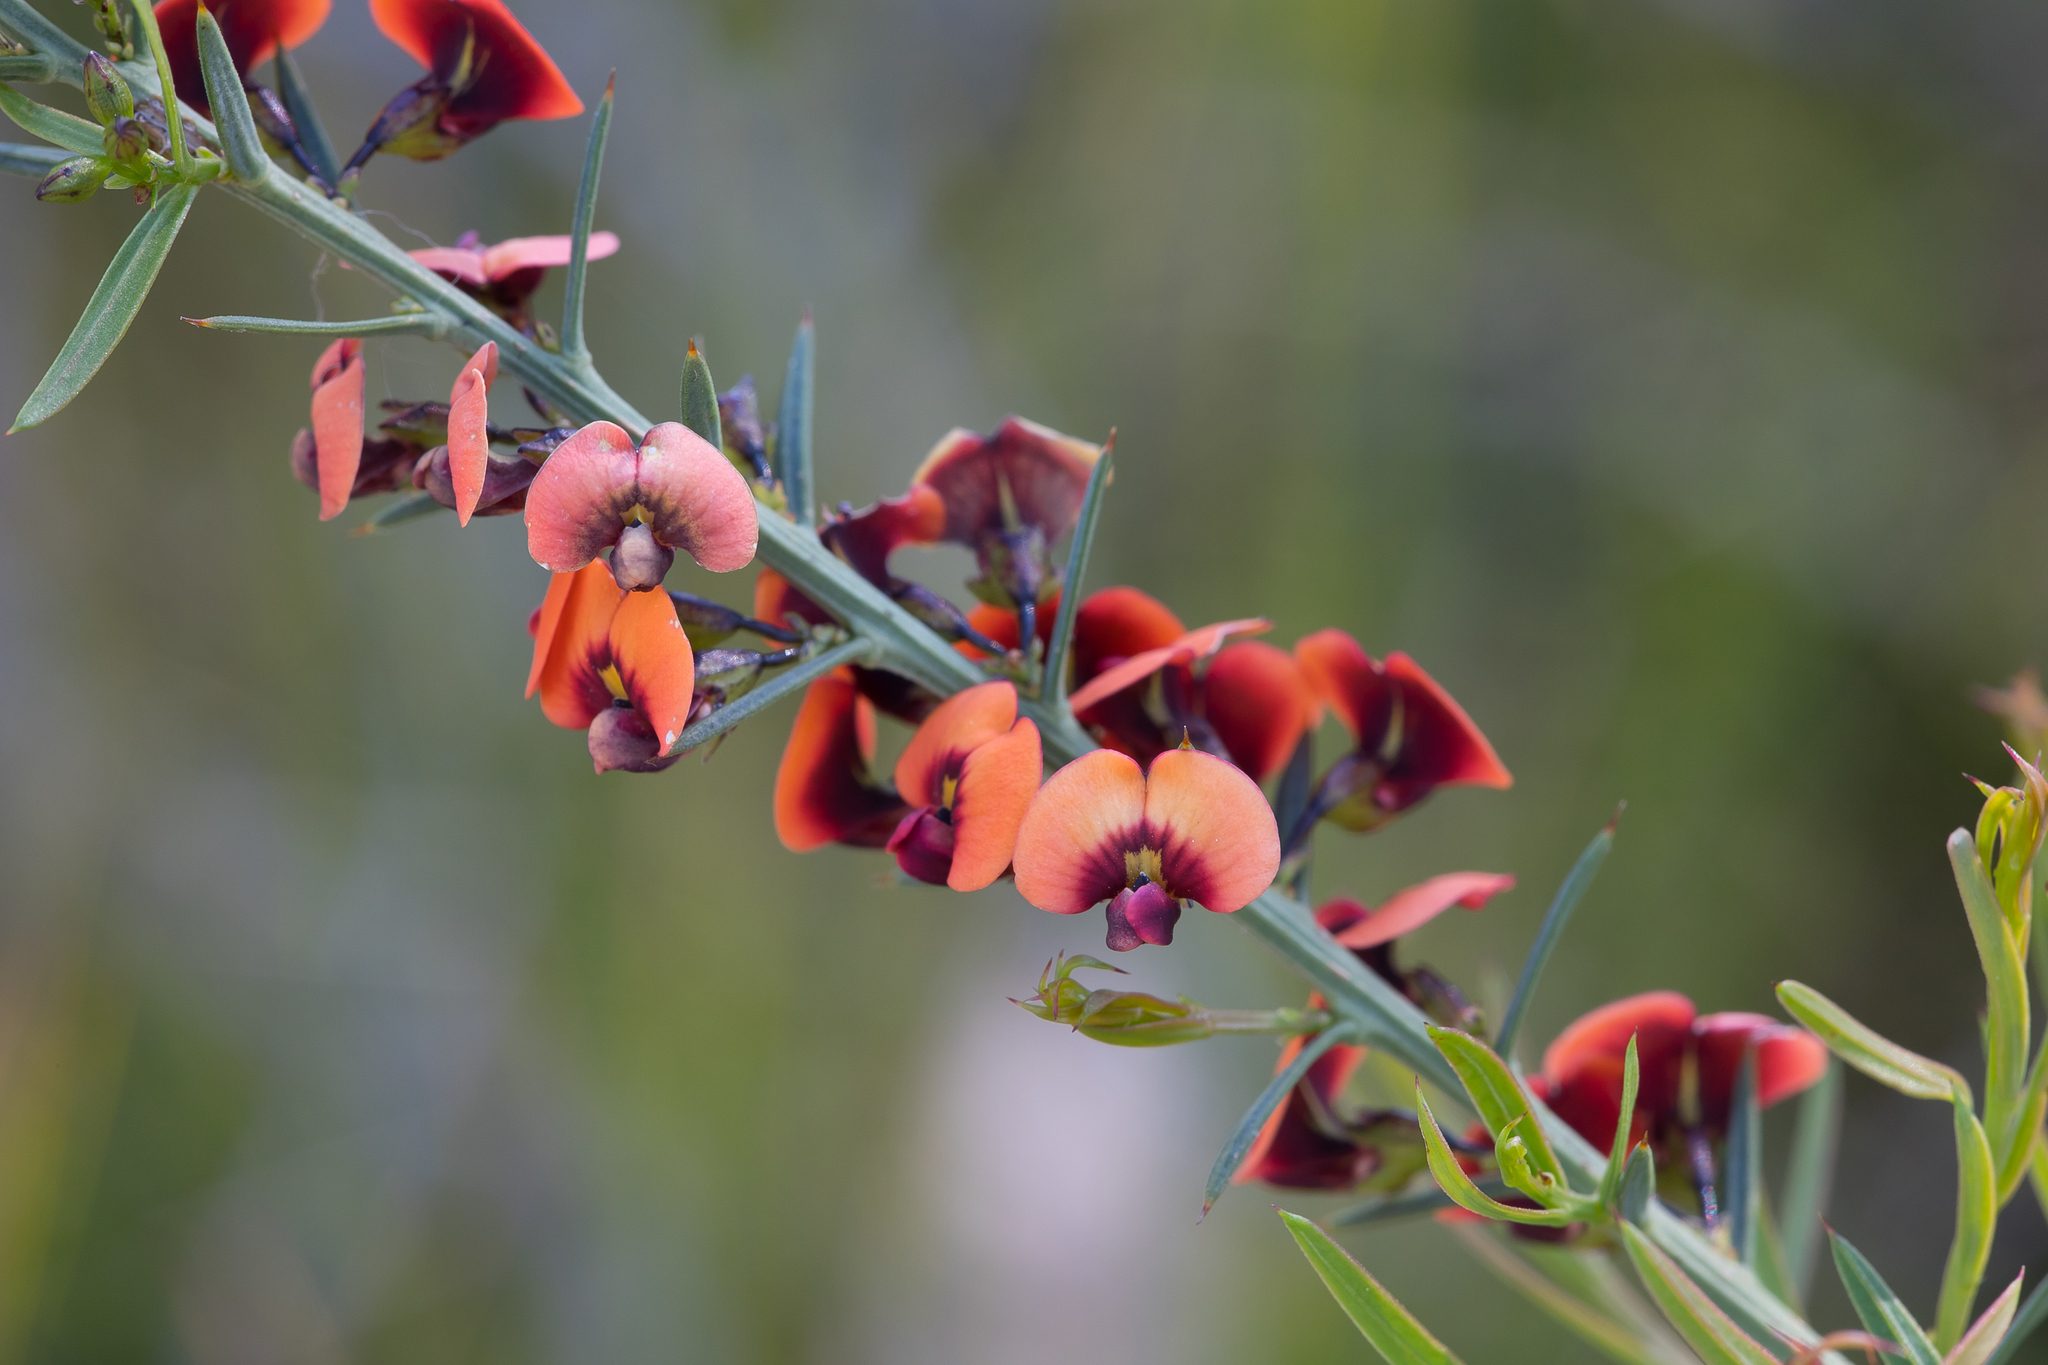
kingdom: Plantae
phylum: Tracheophyta
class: Magnoliopsida
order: Fabales
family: Fabaceae
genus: Daviesia
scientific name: Daviesia ulicifolia
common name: Gorse bitter-pea
